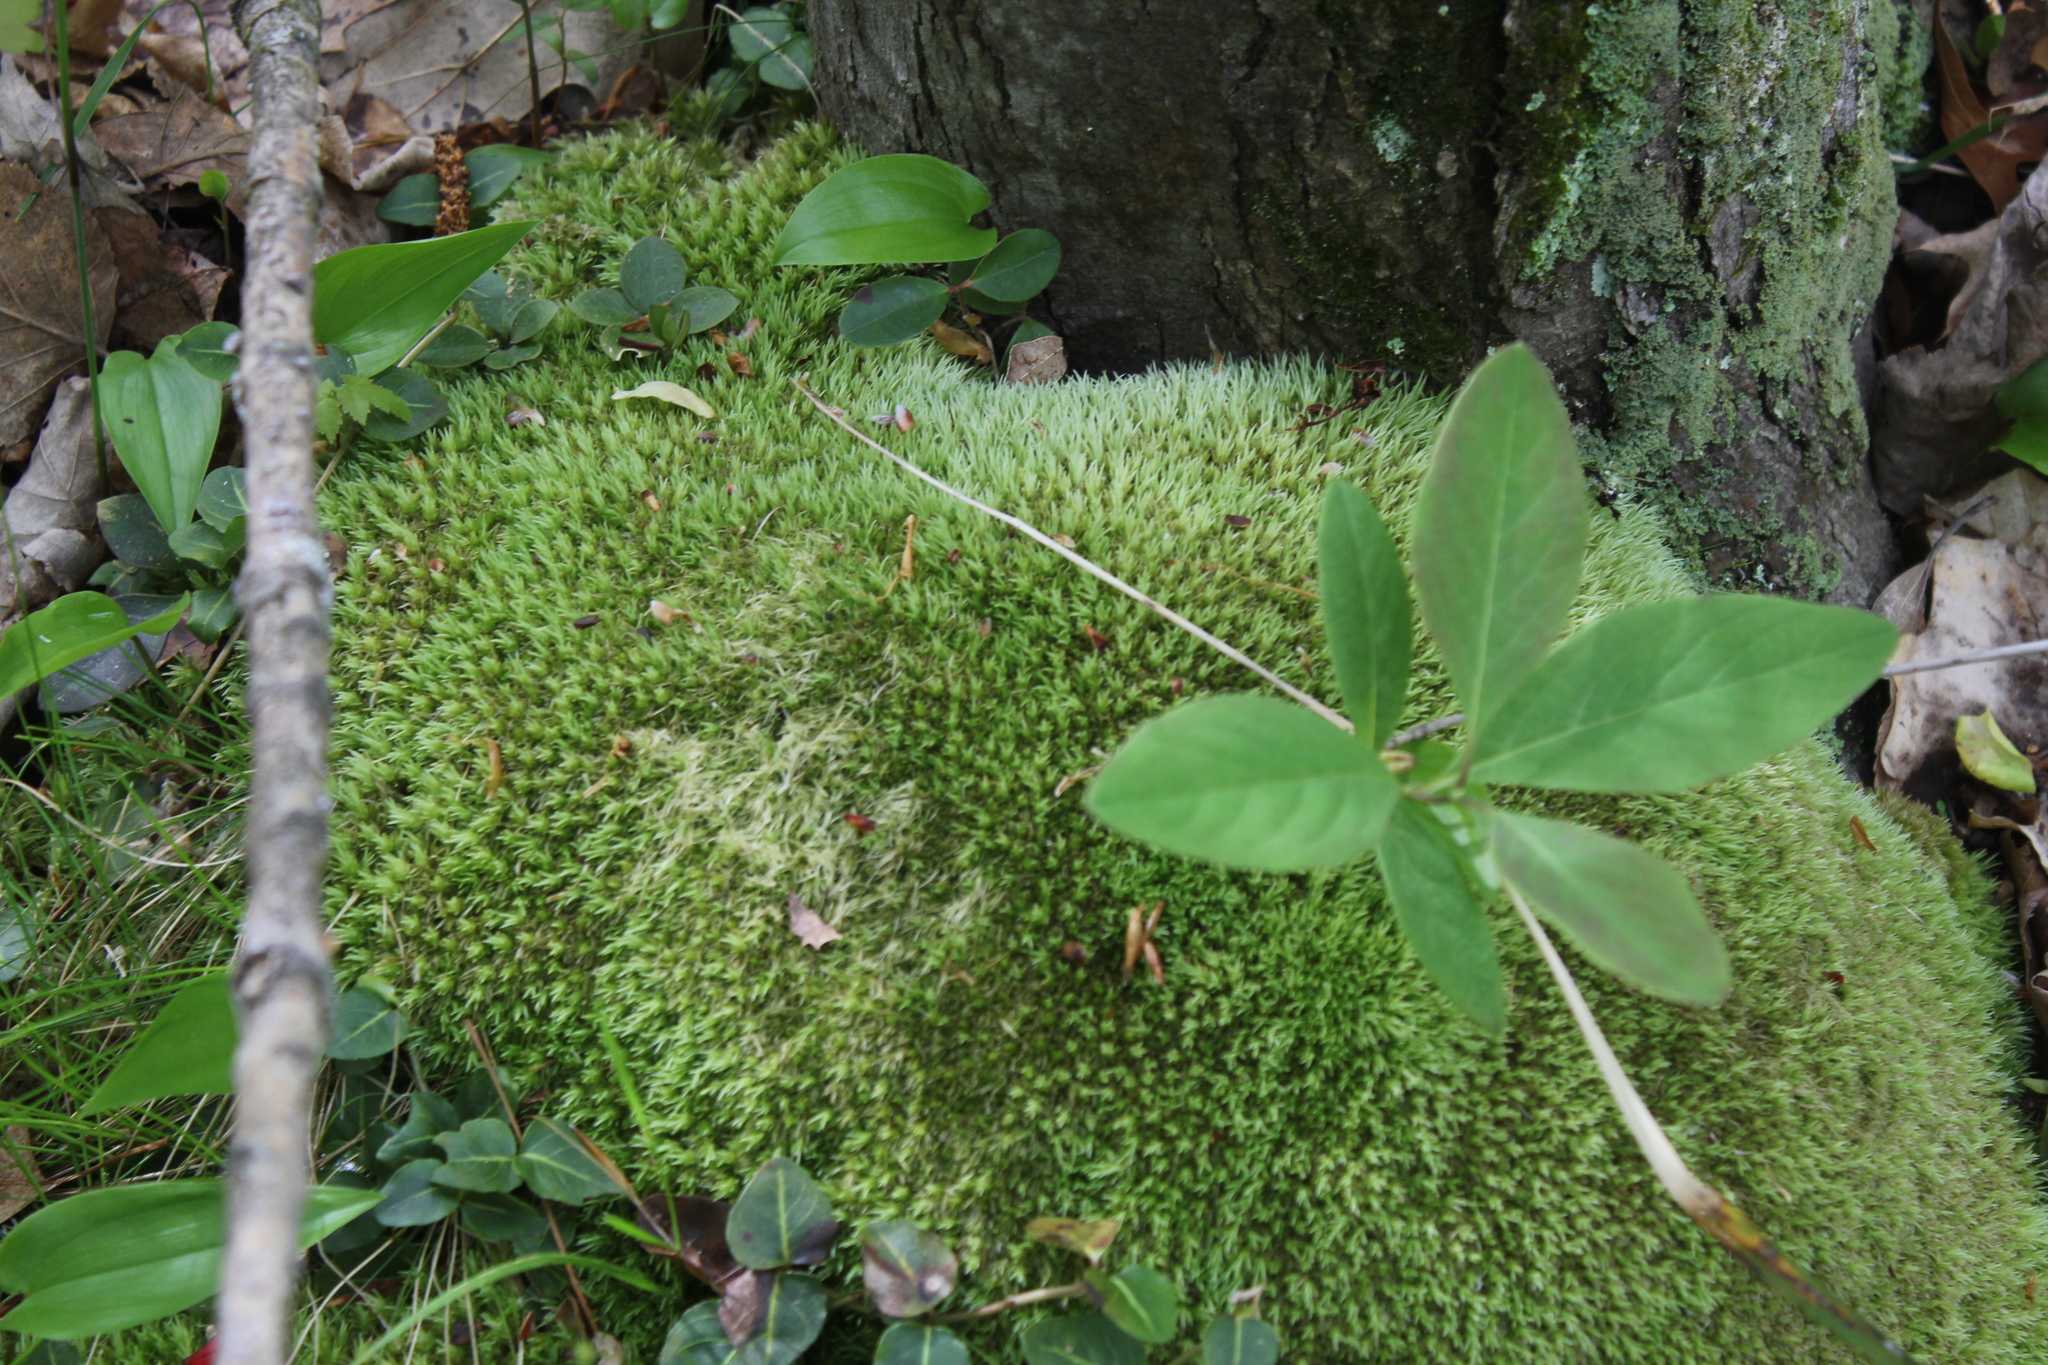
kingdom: Plantae
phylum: Bryophyta
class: Bryopsida
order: Dicranales
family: Leucobryaceae
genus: Leucobryum
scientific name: Leucobryum glaucum
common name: Large white-moss
